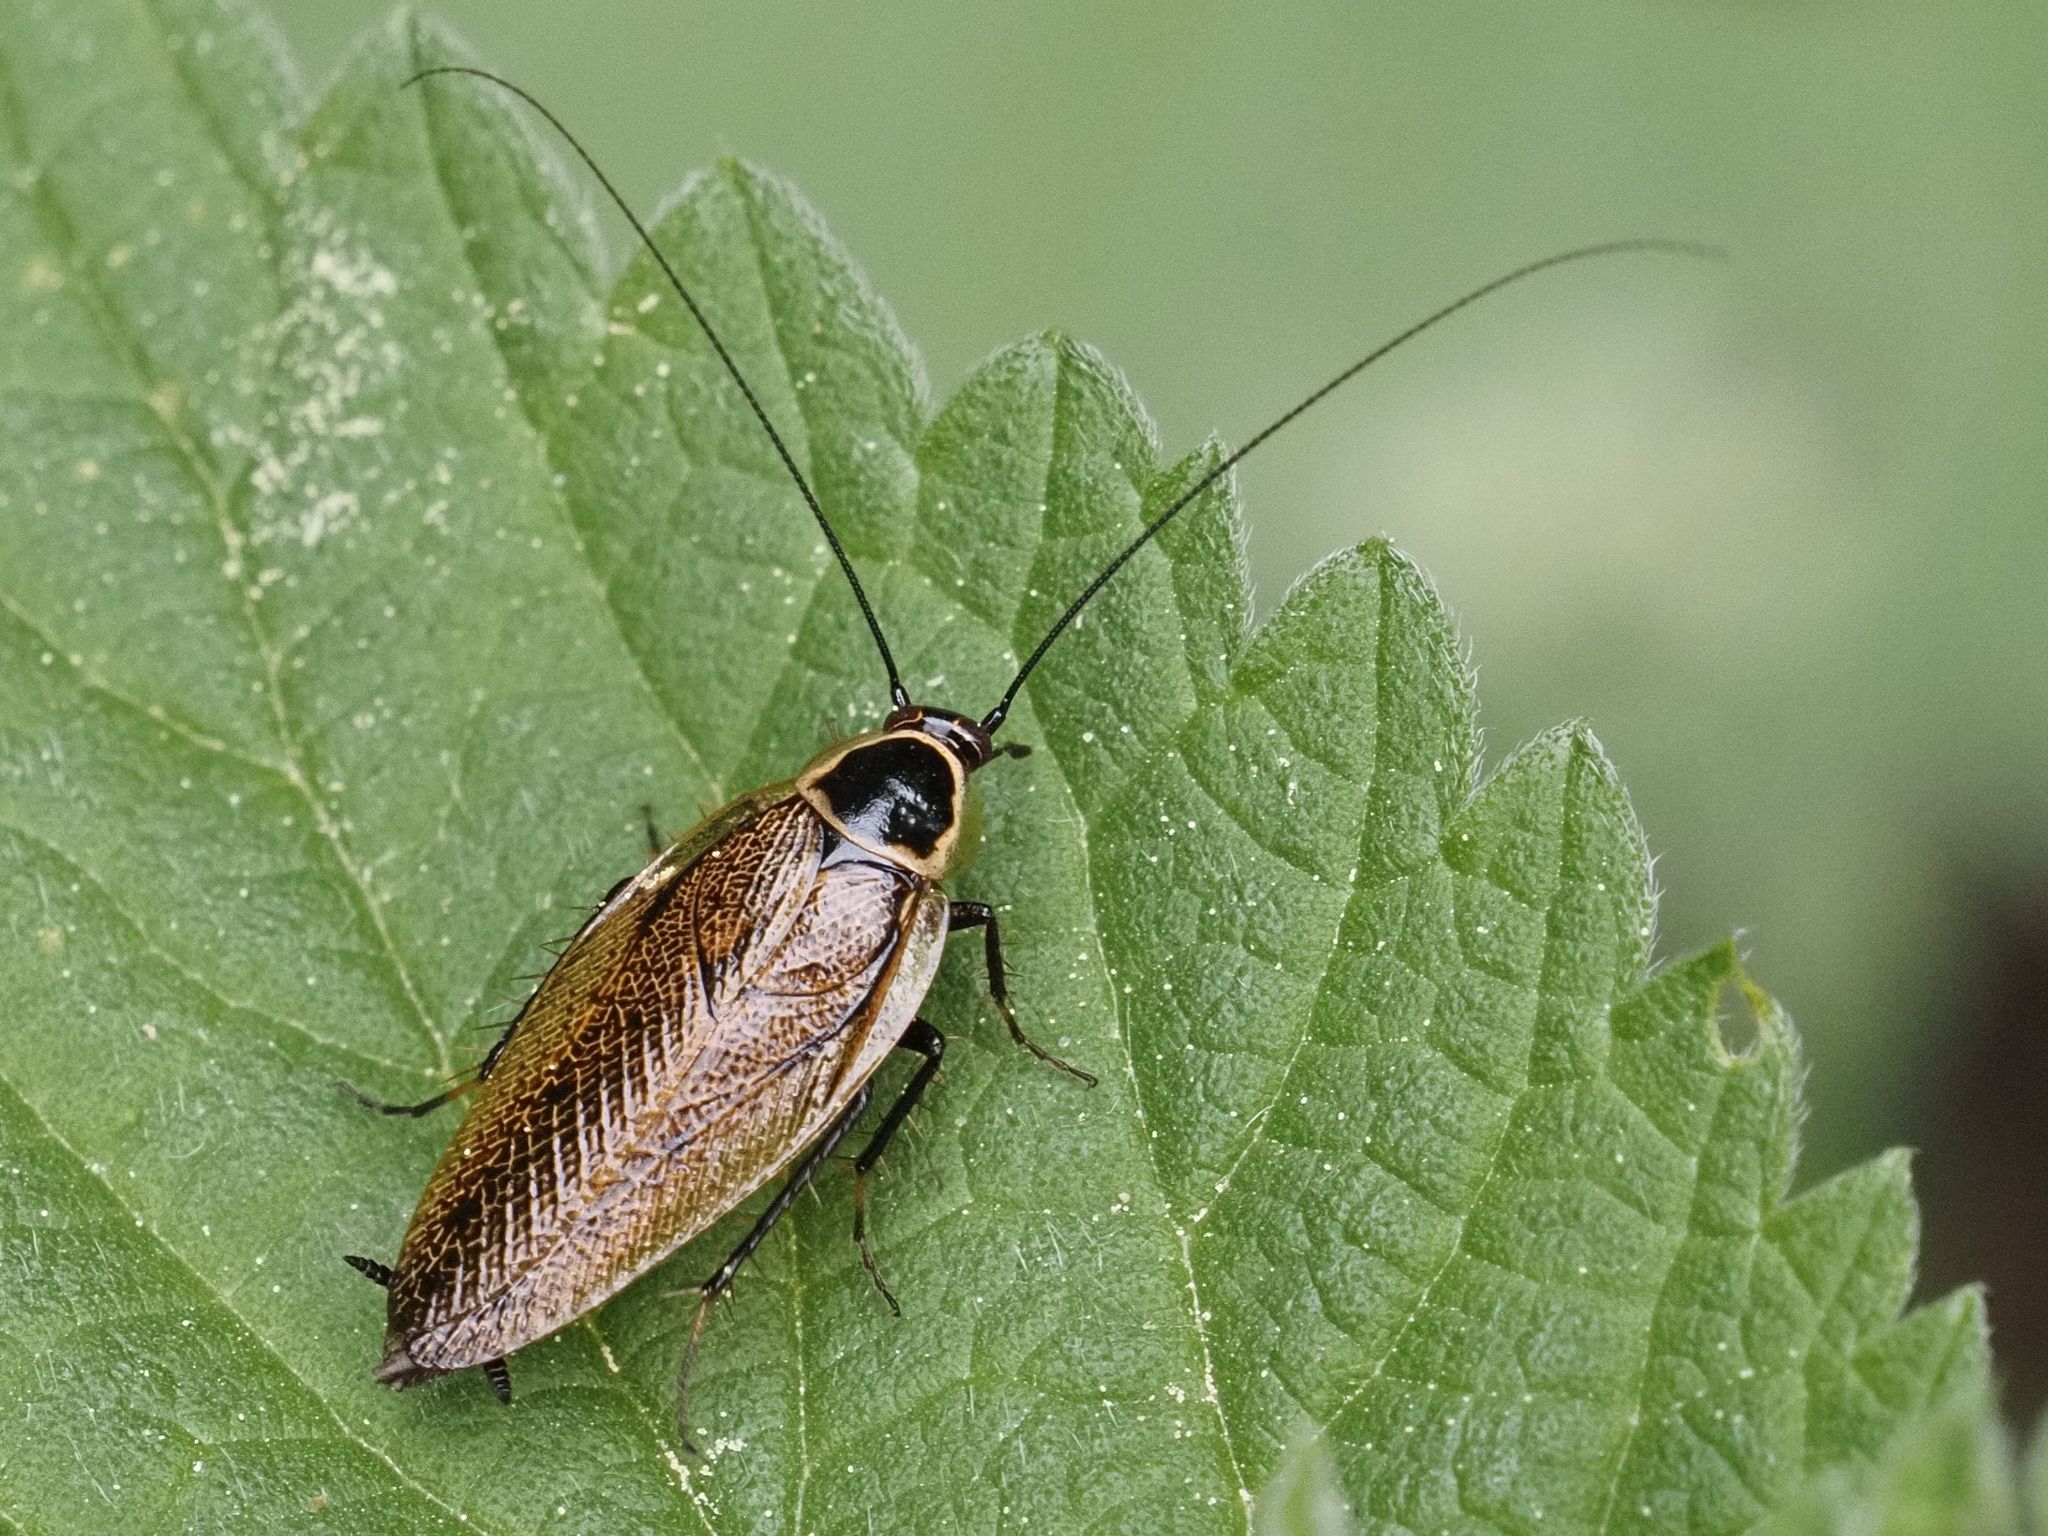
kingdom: Animalia
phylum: Arthropoda
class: Insecta
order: Blattodea
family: Ectobiidae
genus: Ectobius
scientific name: Ectobius sylvestris
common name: Forest cockroach
